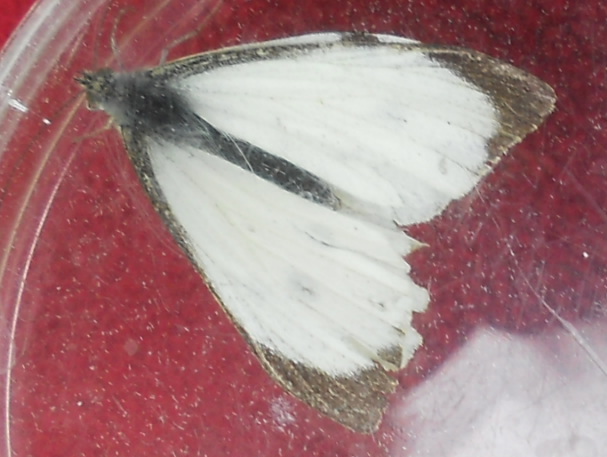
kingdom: Animalia
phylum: Arthropoda
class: Insecta
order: Lepidoptera
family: Pieridae
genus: Pieris
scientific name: Pieris brassicae
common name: Large white
